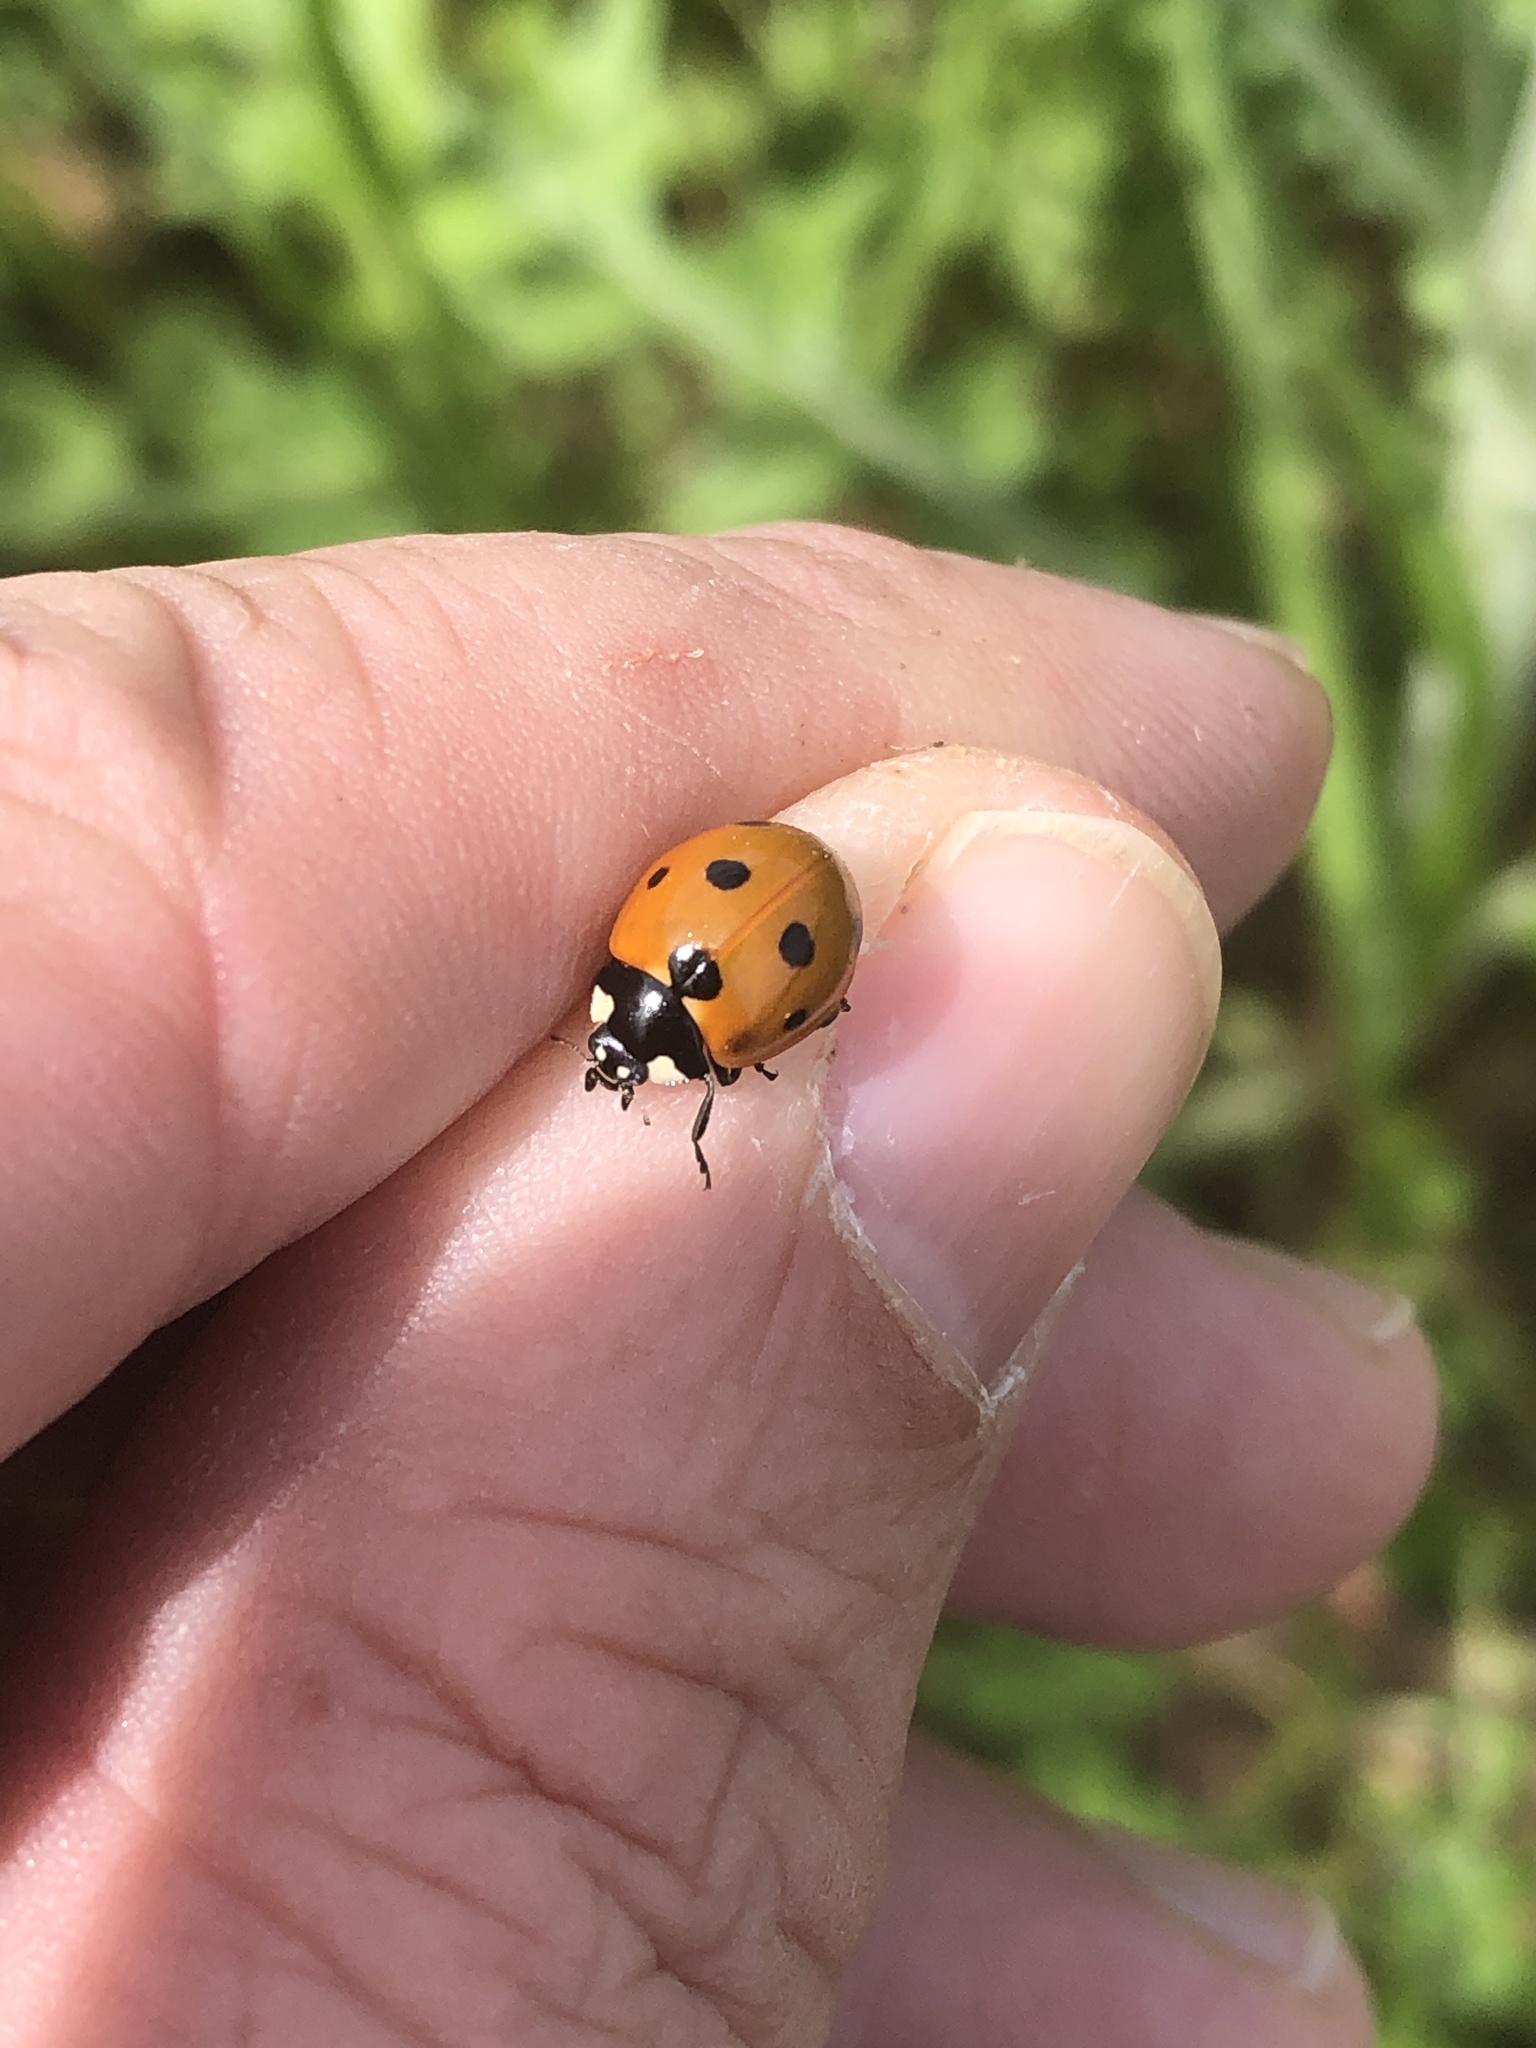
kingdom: Animalia
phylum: Arthropoda
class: Insecta
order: Coleoptera
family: Coccinellidae
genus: Coccinella
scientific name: Coccinella septempunctata
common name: Sevenspotted lady beetle
